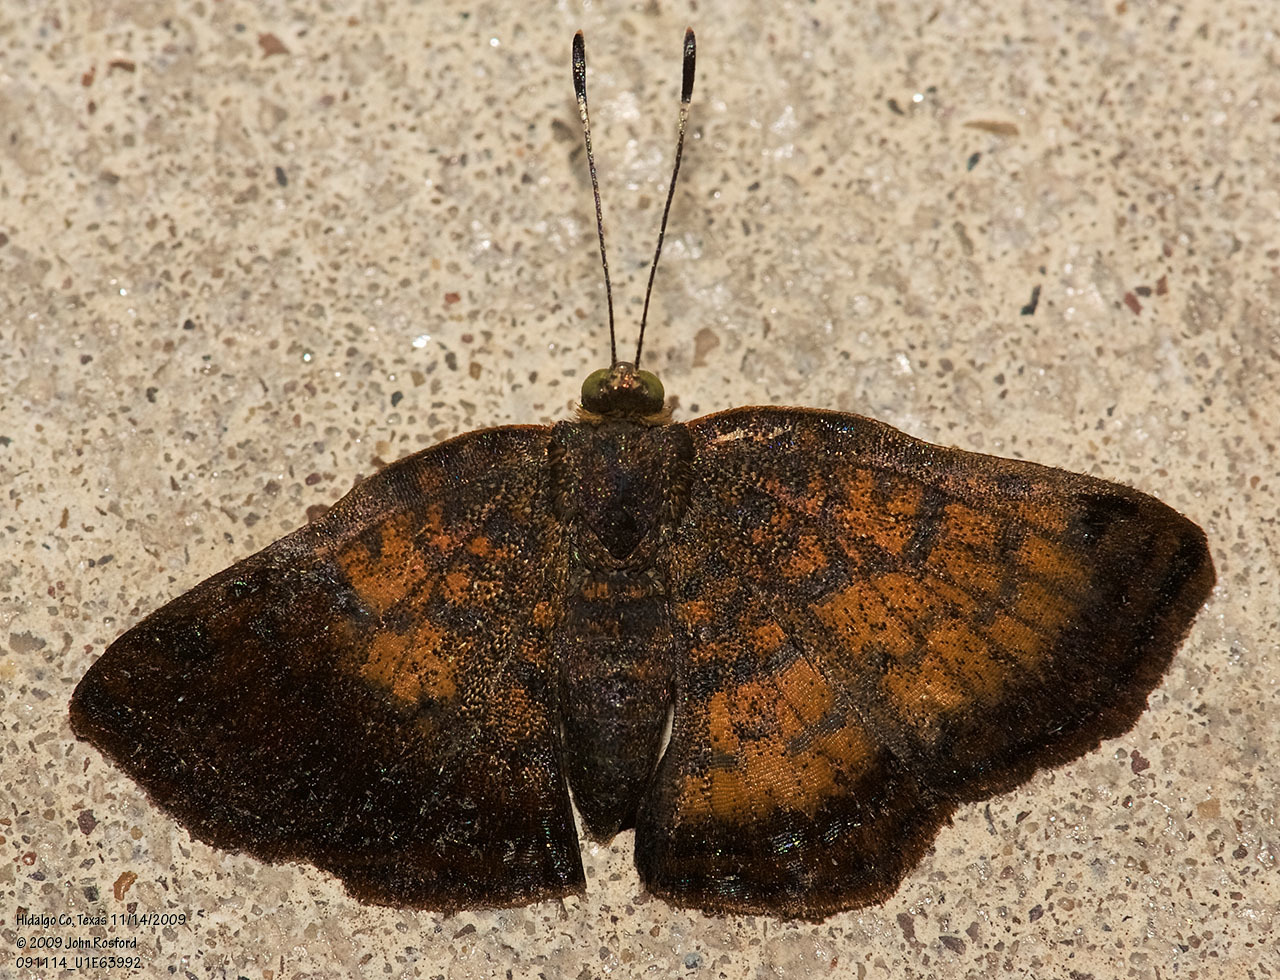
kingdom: Animalia
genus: Caria
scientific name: Caria ino
